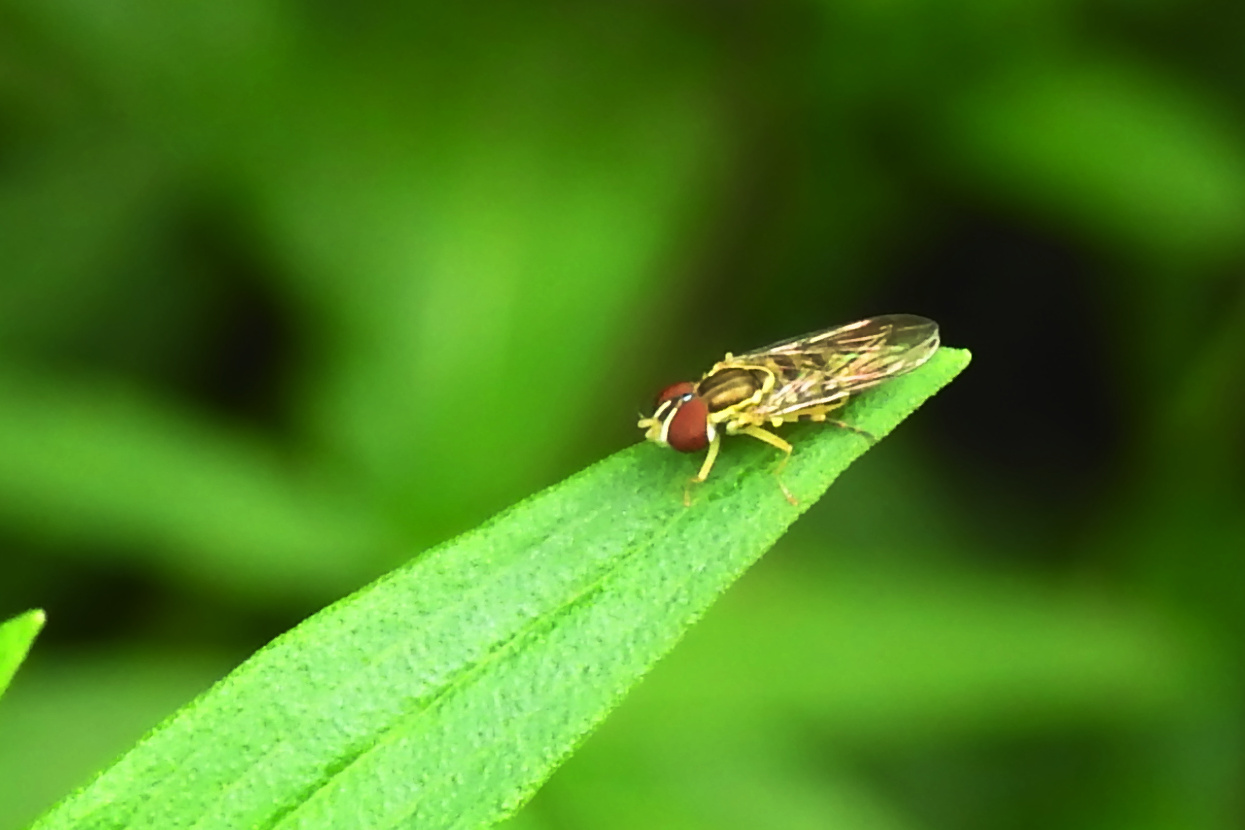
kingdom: Animalia
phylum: Arthropoda
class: Insecta
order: Diptera
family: Syrphidae
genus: Toxomerus
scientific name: Toxomerus geminatus
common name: Eastern calligrapher
